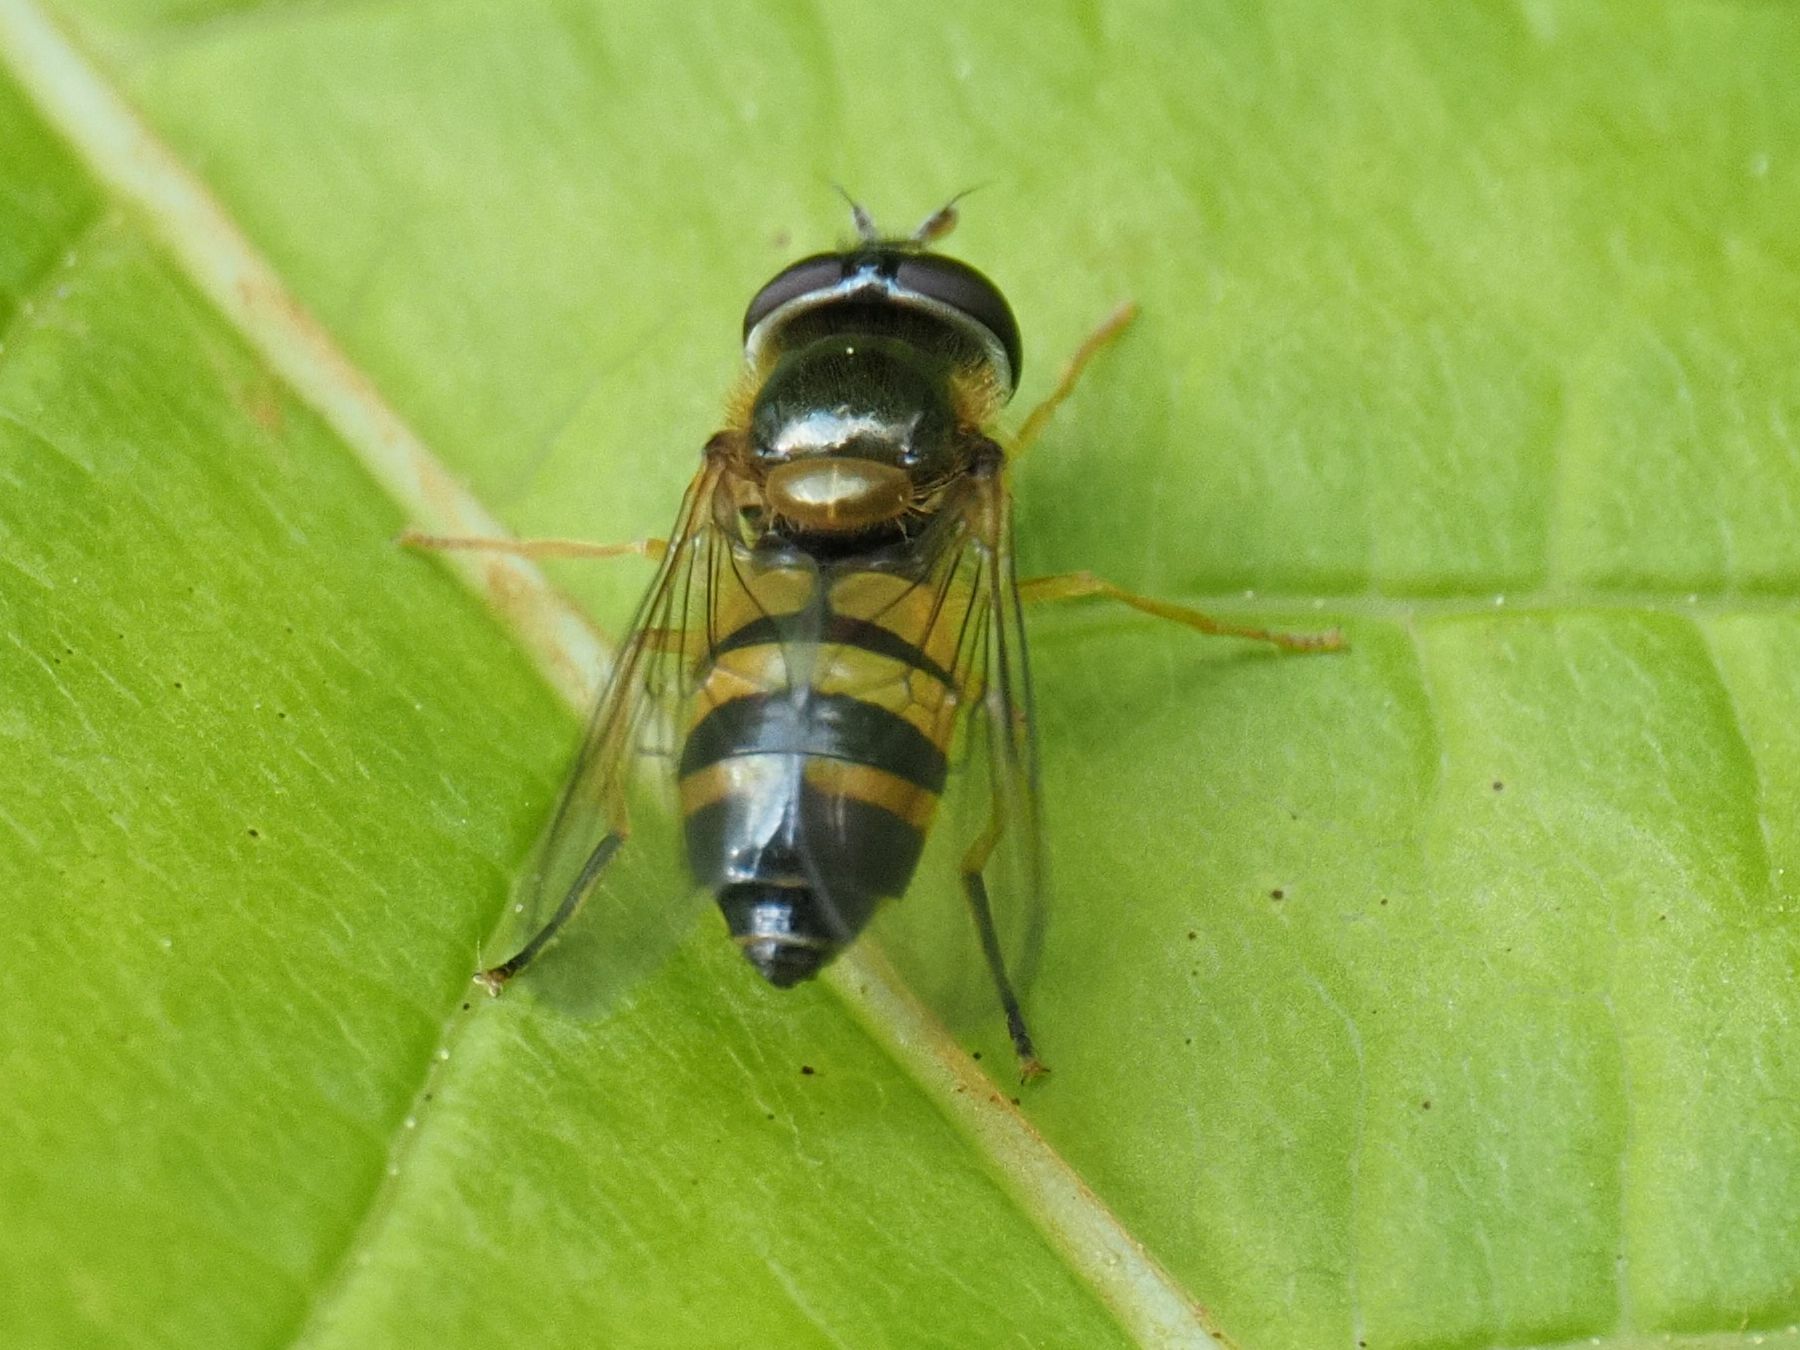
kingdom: Animalia
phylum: Arthropoda
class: Insecta
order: Diptera
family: Syrphidae
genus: Epistrophe
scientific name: Epistrophe eligans
